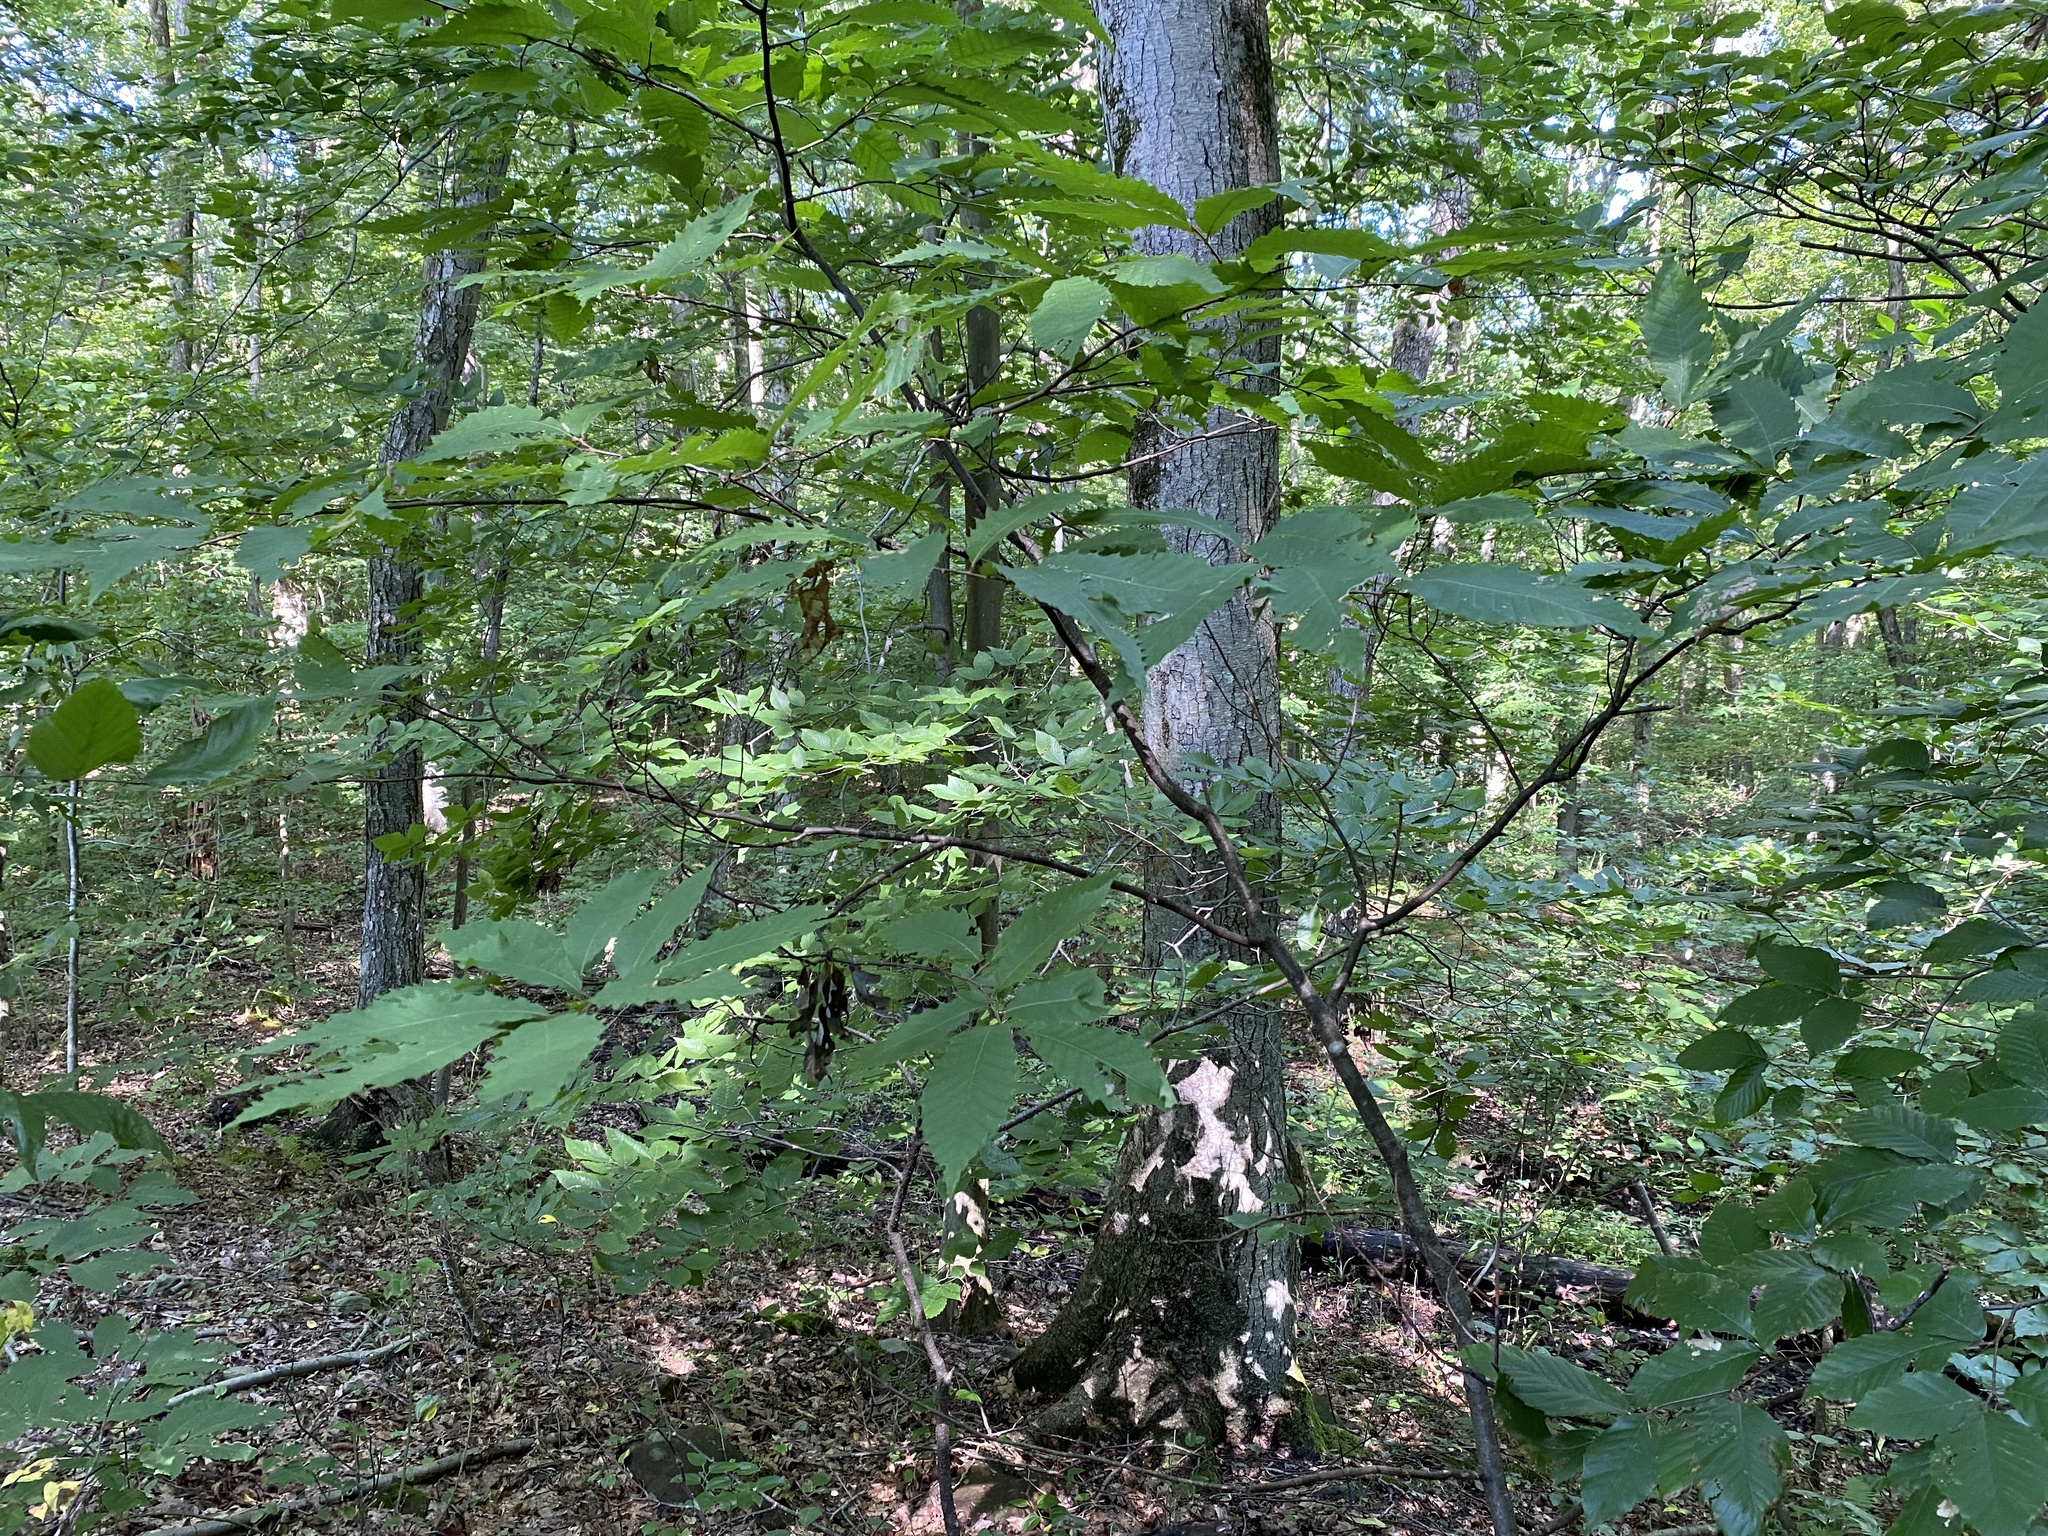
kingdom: Plantae
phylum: Tracheophyta
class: Magnoliopsida
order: Fagales
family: Fagaceae
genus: Castanea
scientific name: Castanea dentata
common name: American chestnut
